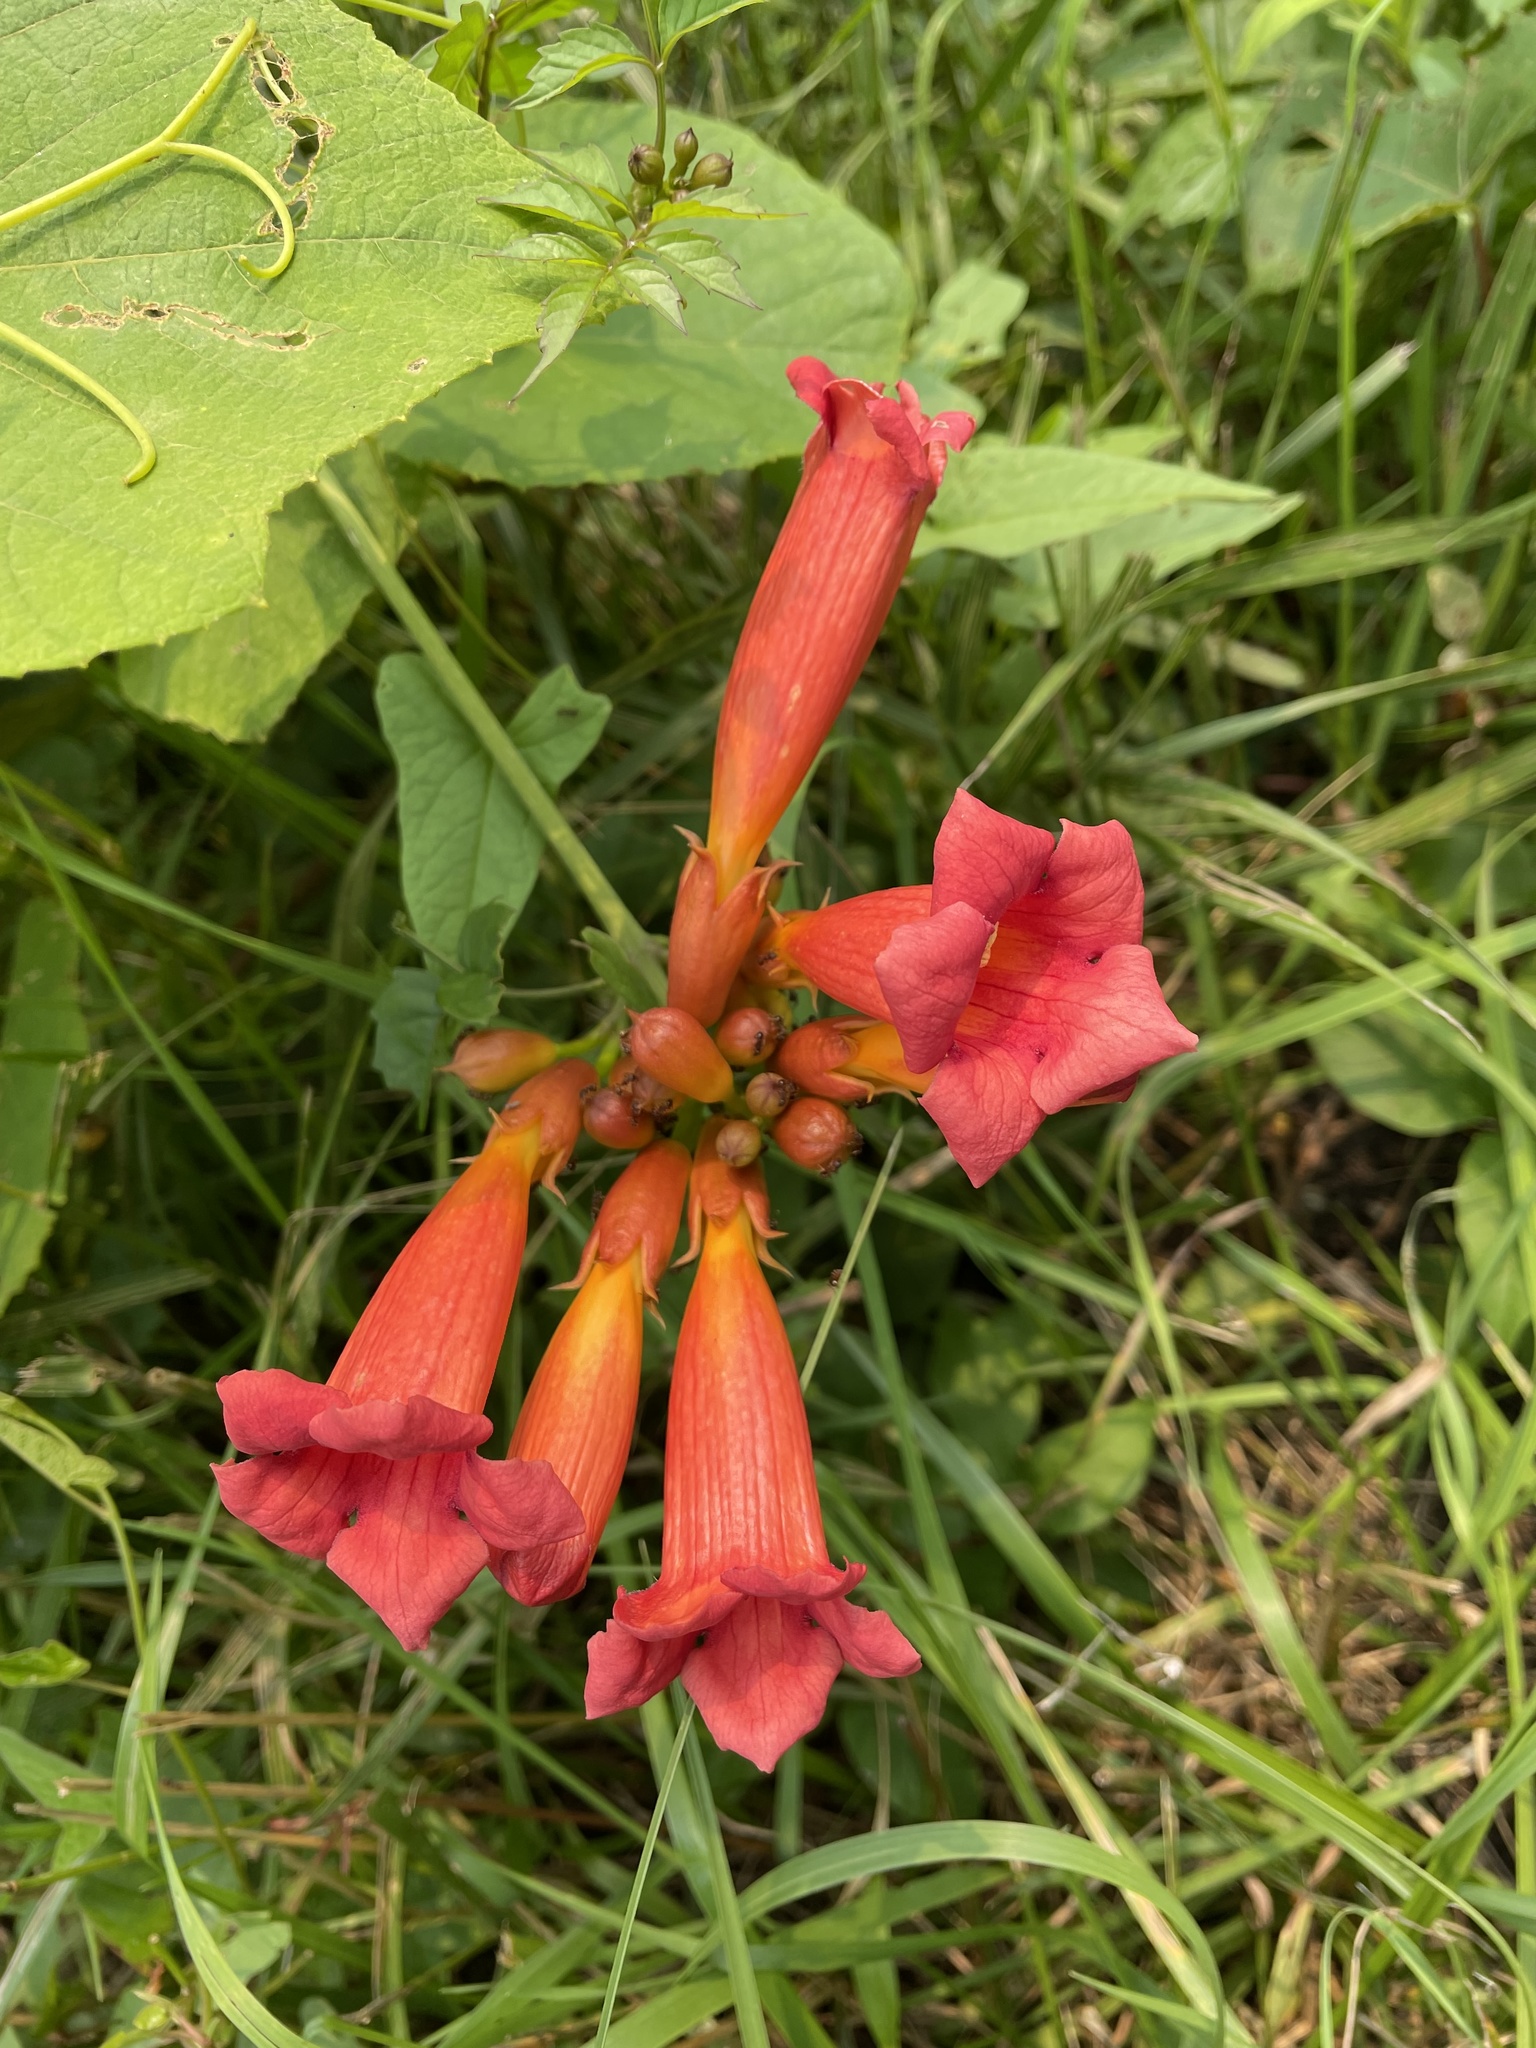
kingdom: Plantae
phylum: Tracheophyta
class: Magnoliopsida
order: Lamiales
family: Bignoniaceae
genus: Campsis
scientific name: Campsis radicans
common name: Trumpet-creeper
